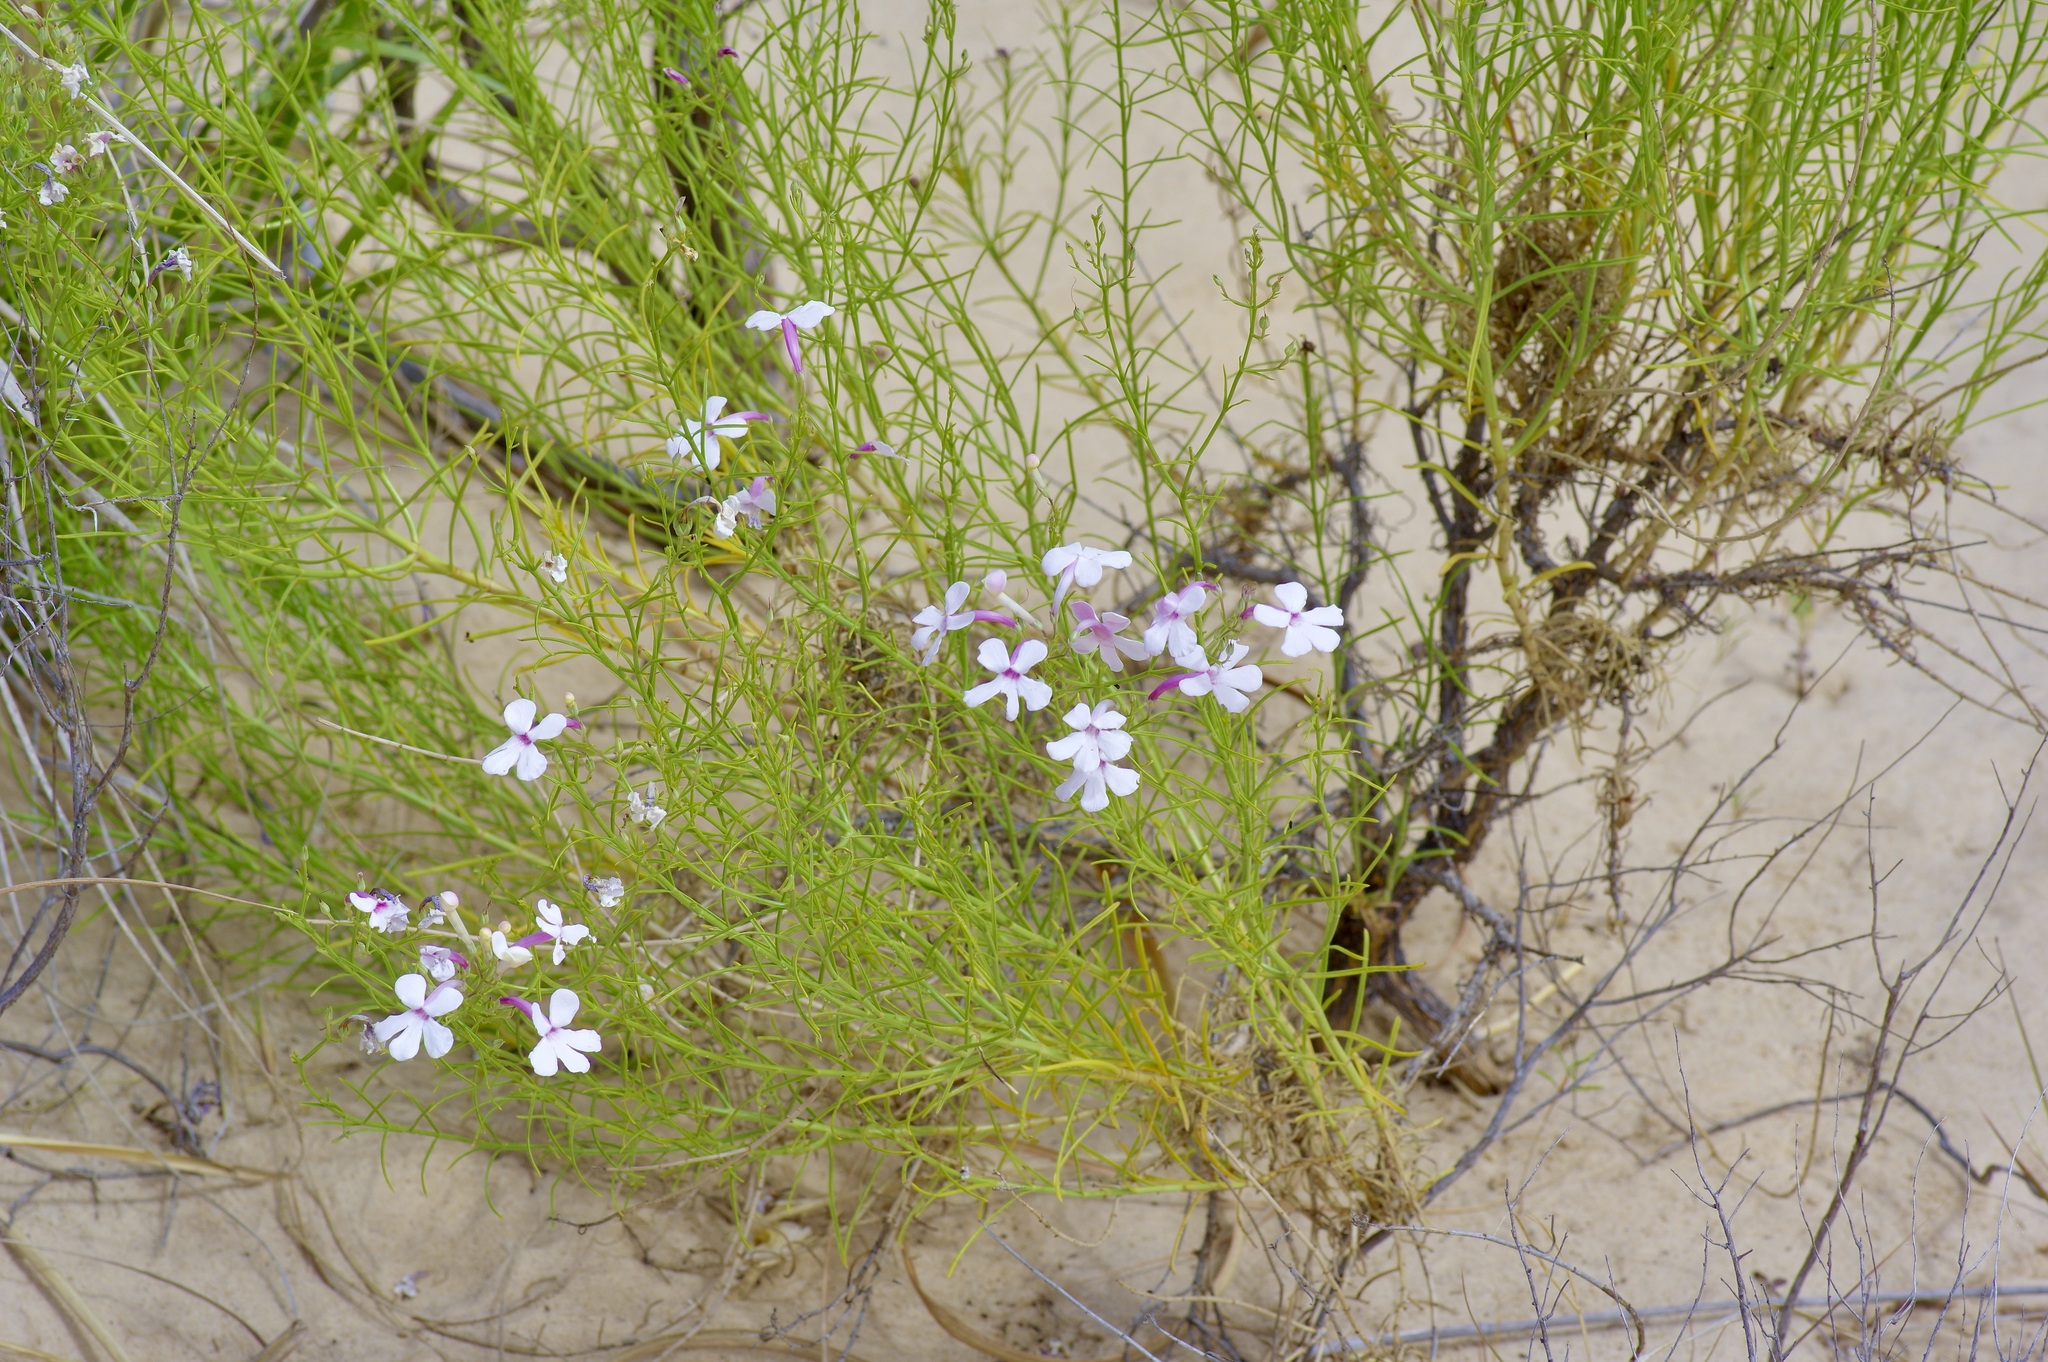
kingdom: Plantae
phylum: Tracheophyta
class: Magnoliopsida
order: Lamiales
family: Plantaginaceae
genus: Penstemon
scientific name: Penstemon ambiguus
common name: Bush penstemon
